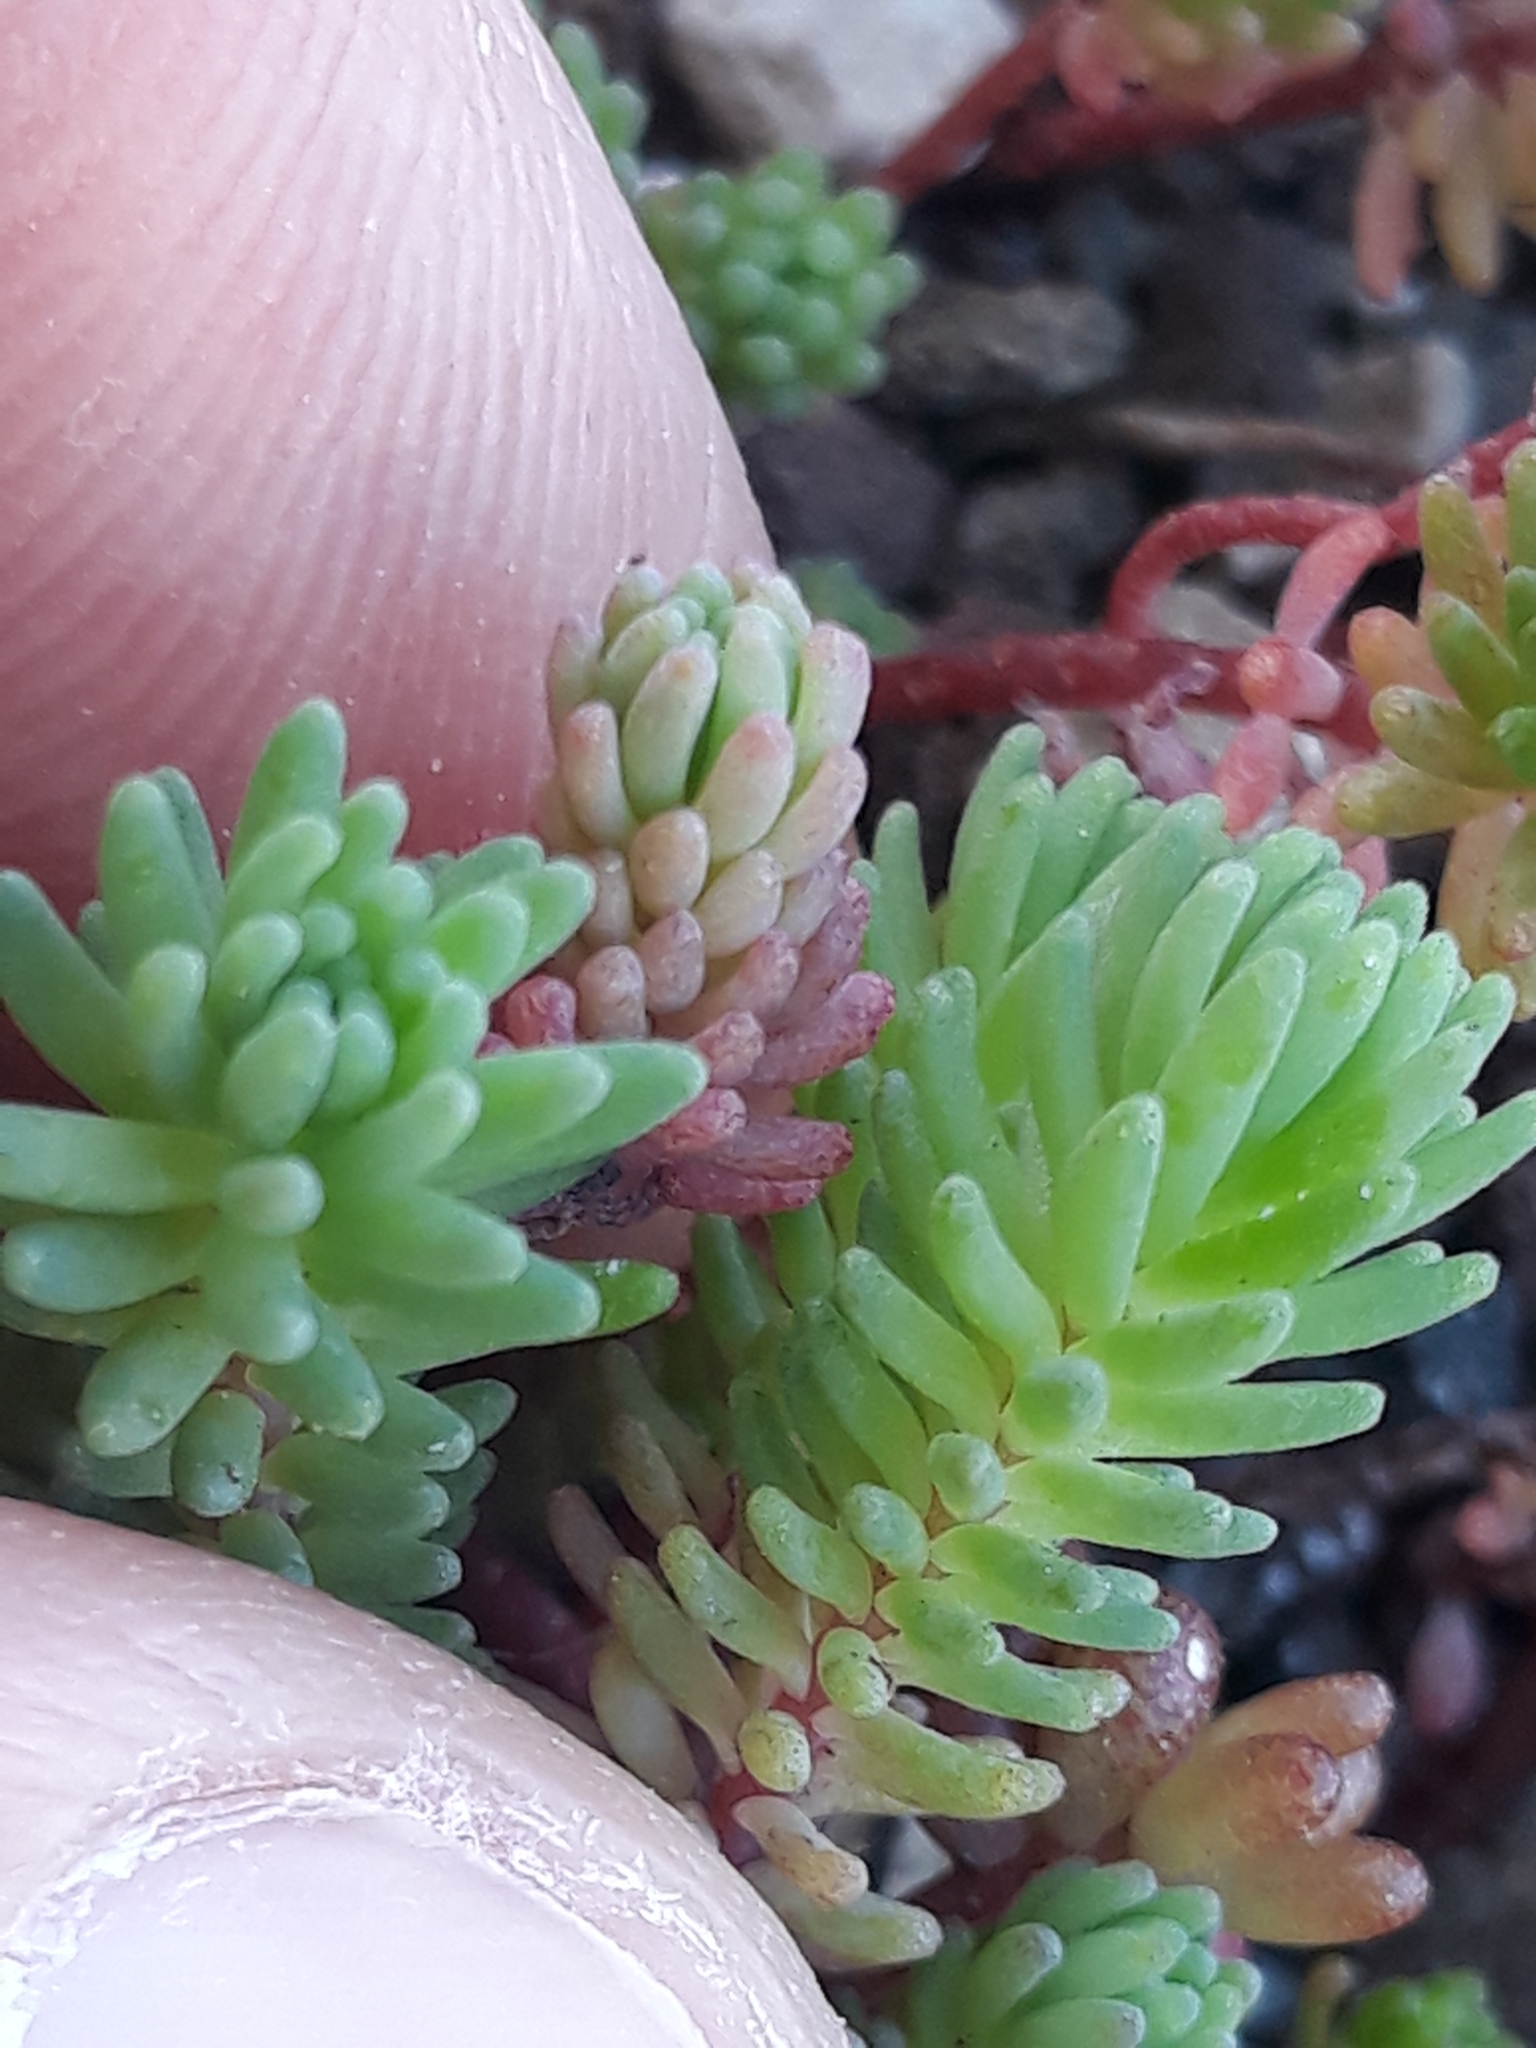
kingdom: Plantae
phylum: Tracheophyta
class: Magnoliopsida
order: Saxifragales
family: Crassulaceae
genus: Sedum
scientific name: Sedum pallidum
